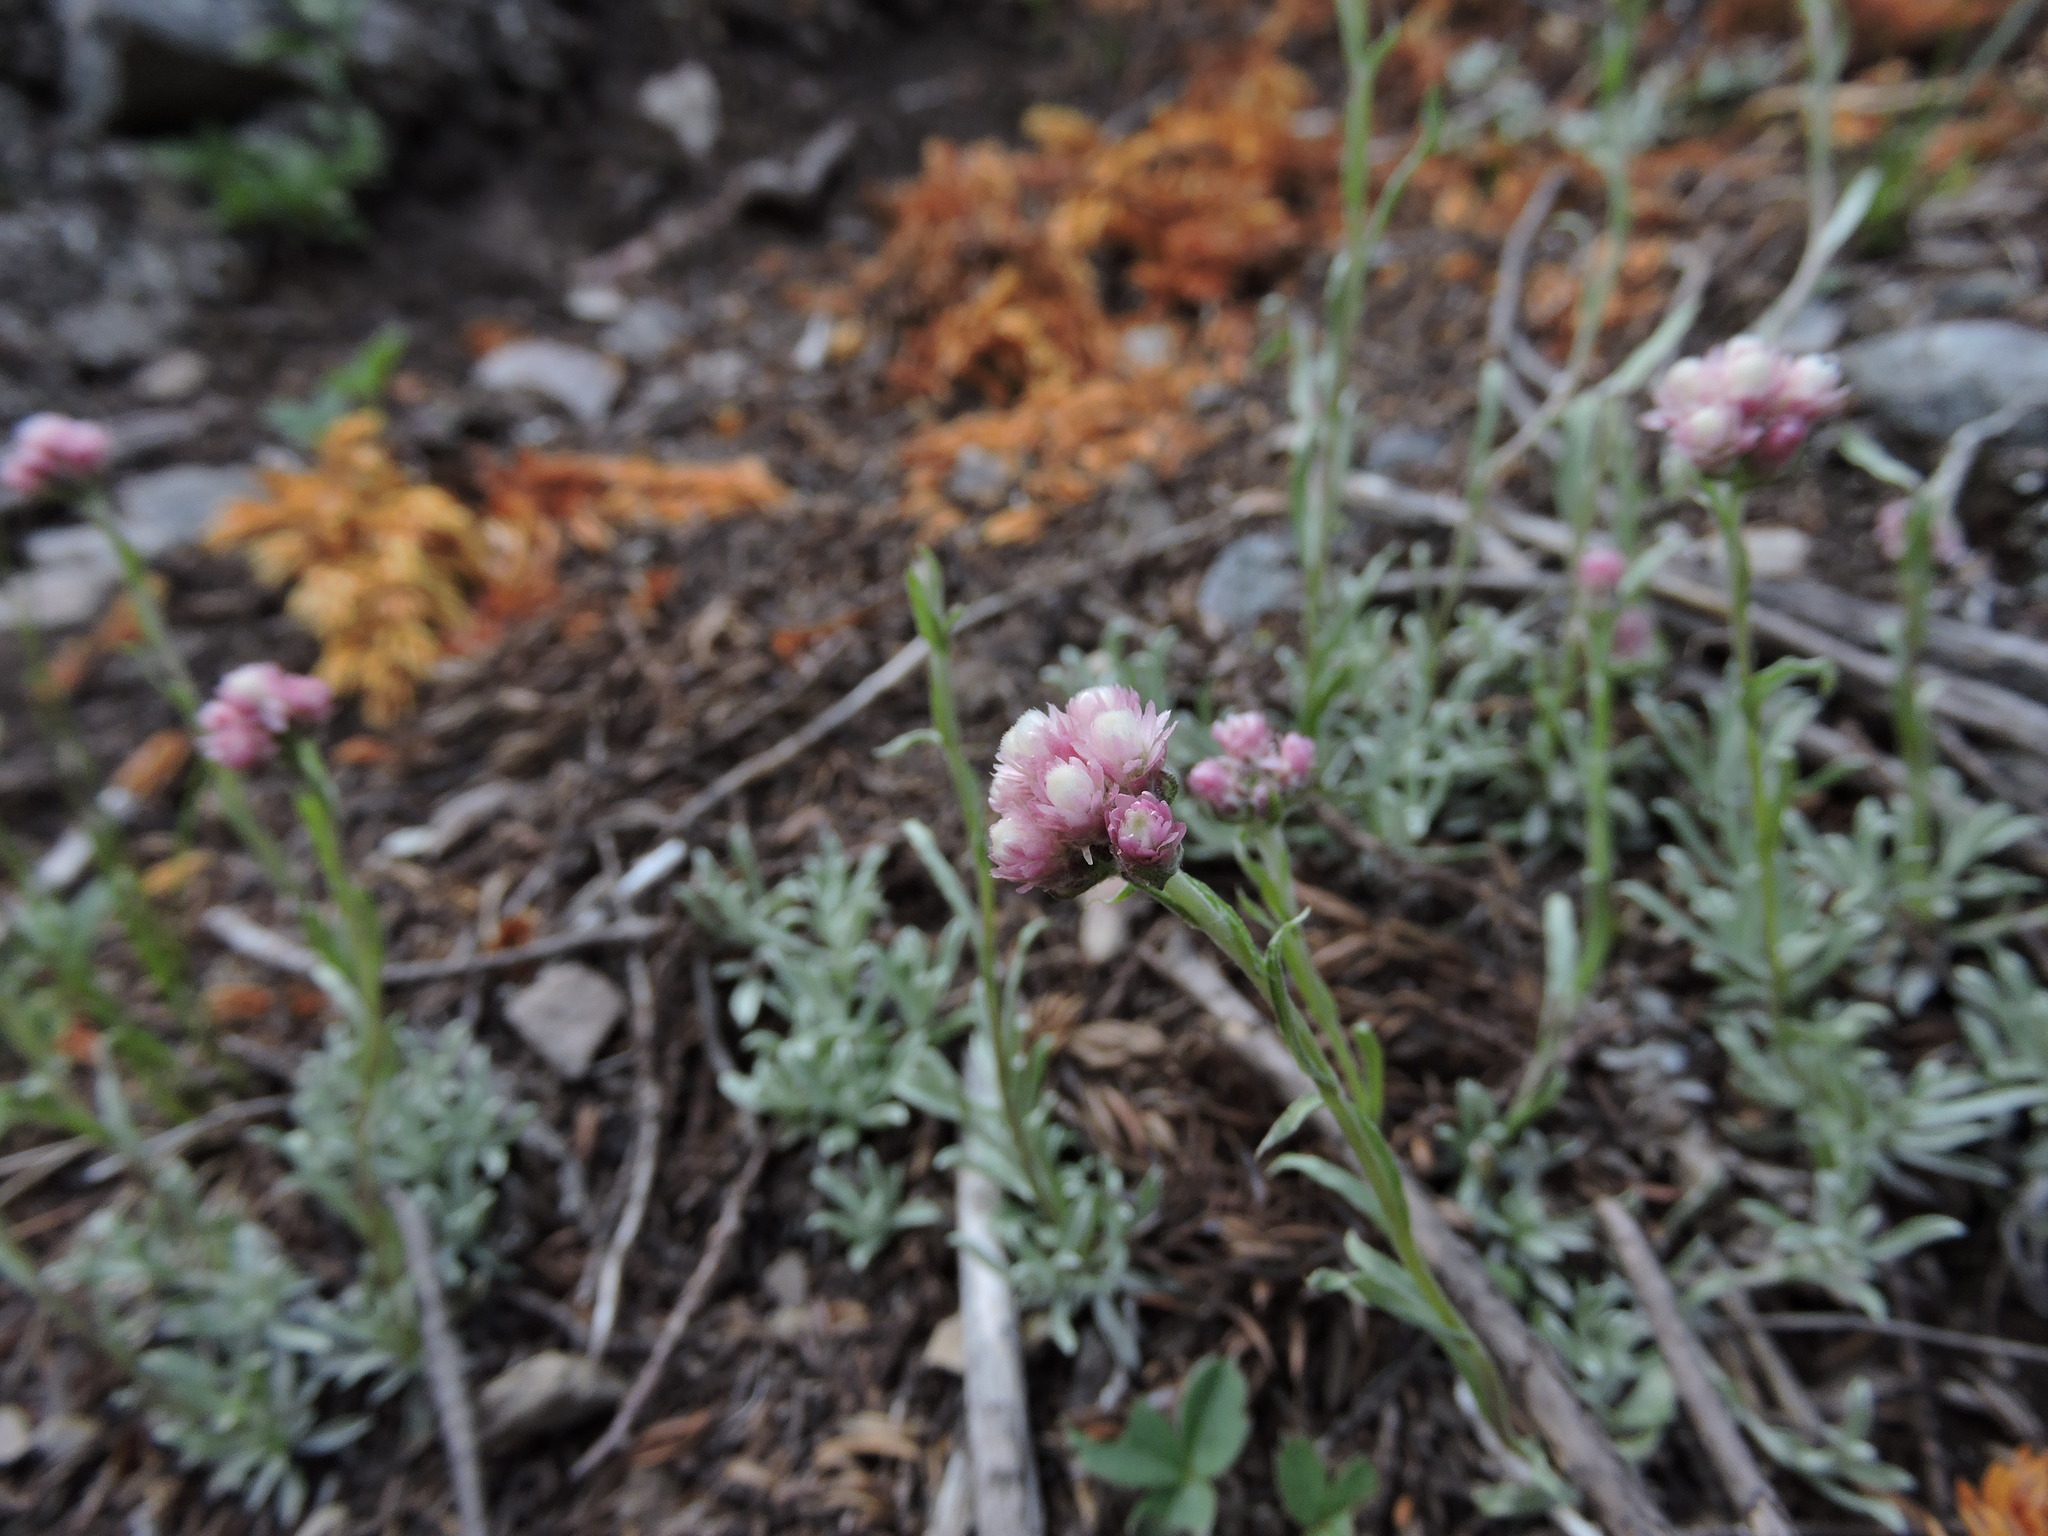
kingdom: Plantae
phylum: Tracheophyta
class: Magnoliopsida
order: Asterales
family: Asteraceae
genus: Antennaria
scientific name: Antennaria rosea
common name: Rosy pussytoes
